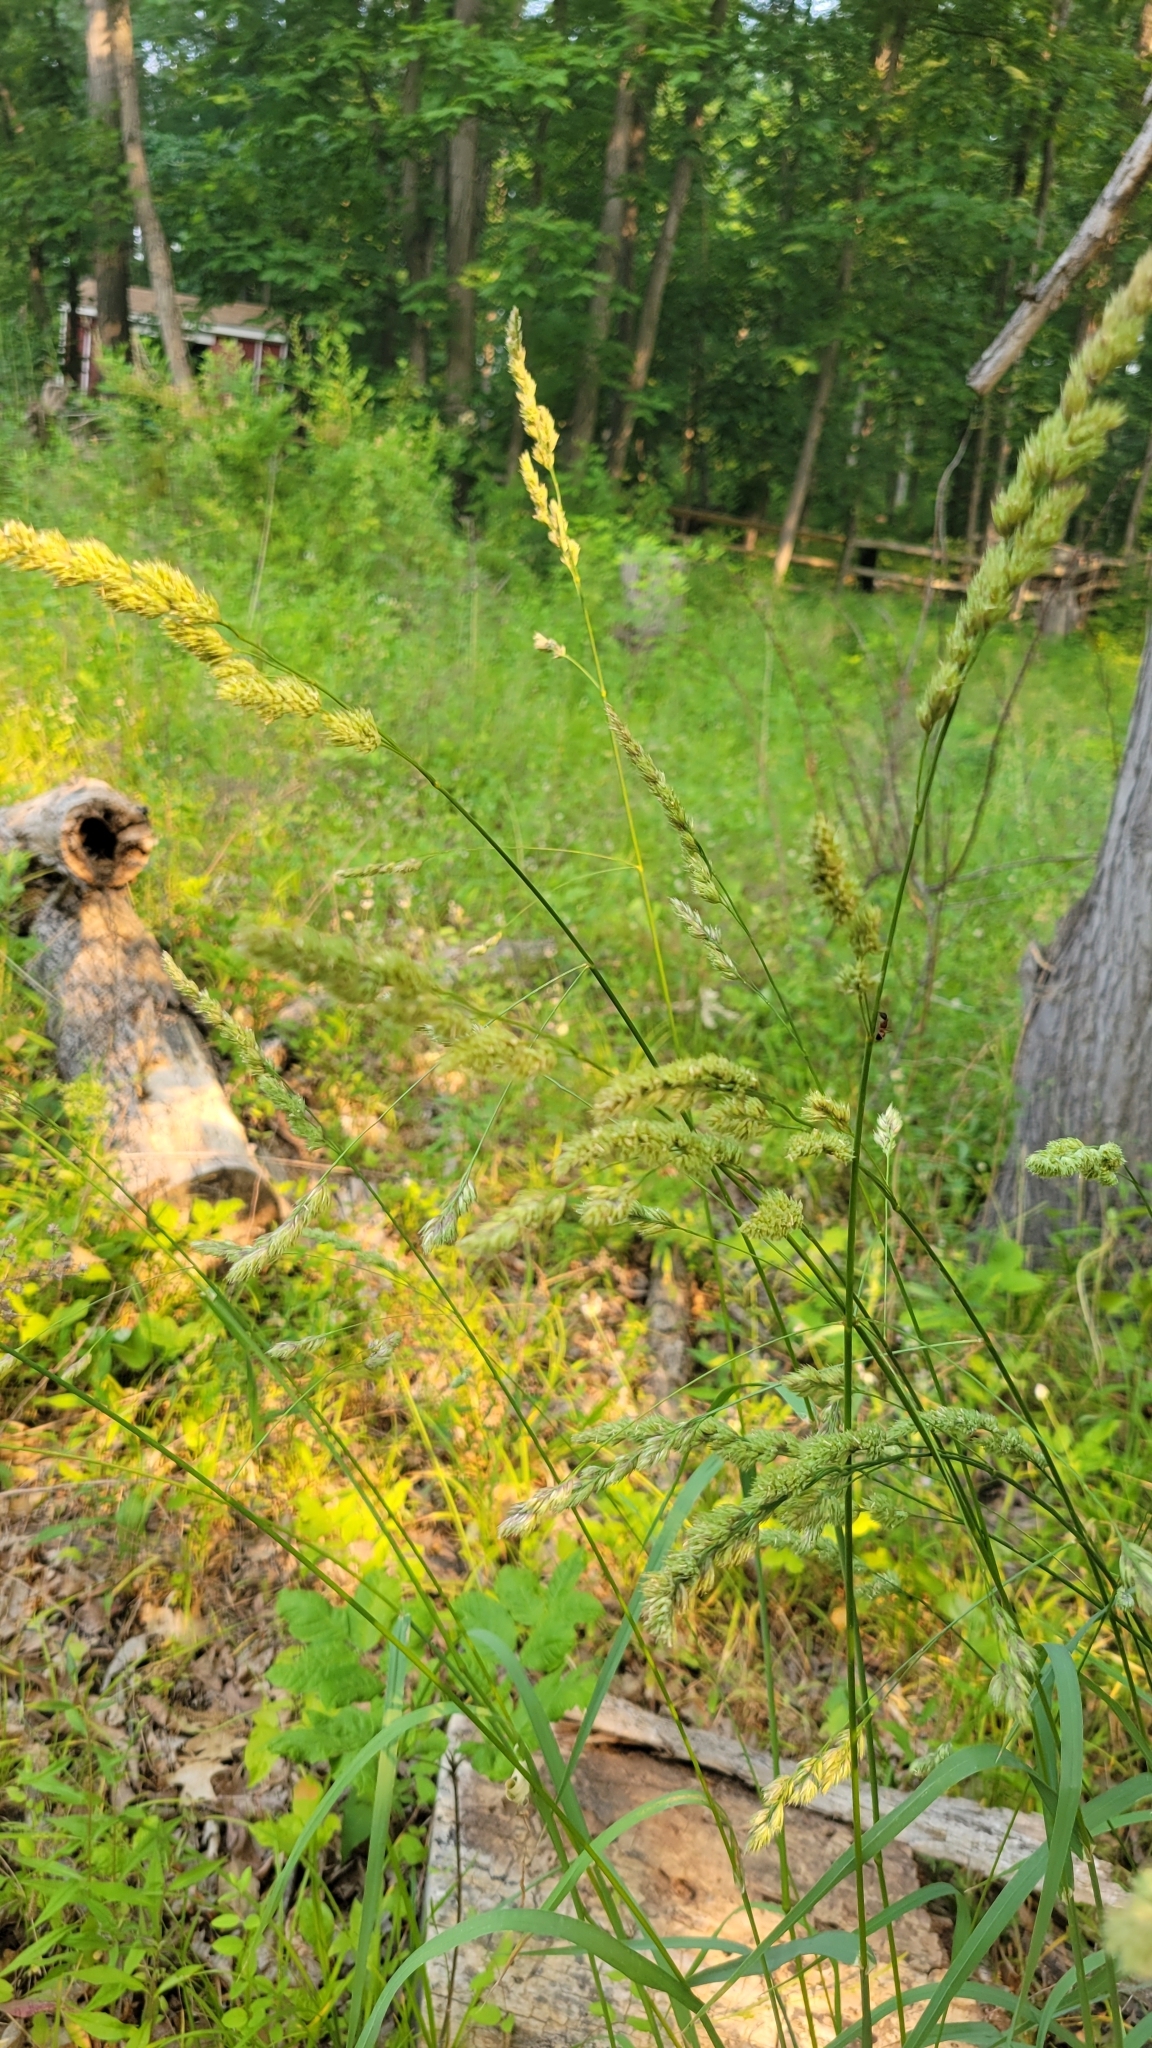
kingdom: Plantae
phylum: Tracheophyta
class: Liliopsida
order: Poales
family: Poaceae
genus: Dactylis
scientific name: Dactylis glomerata
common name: Orchardgrass
